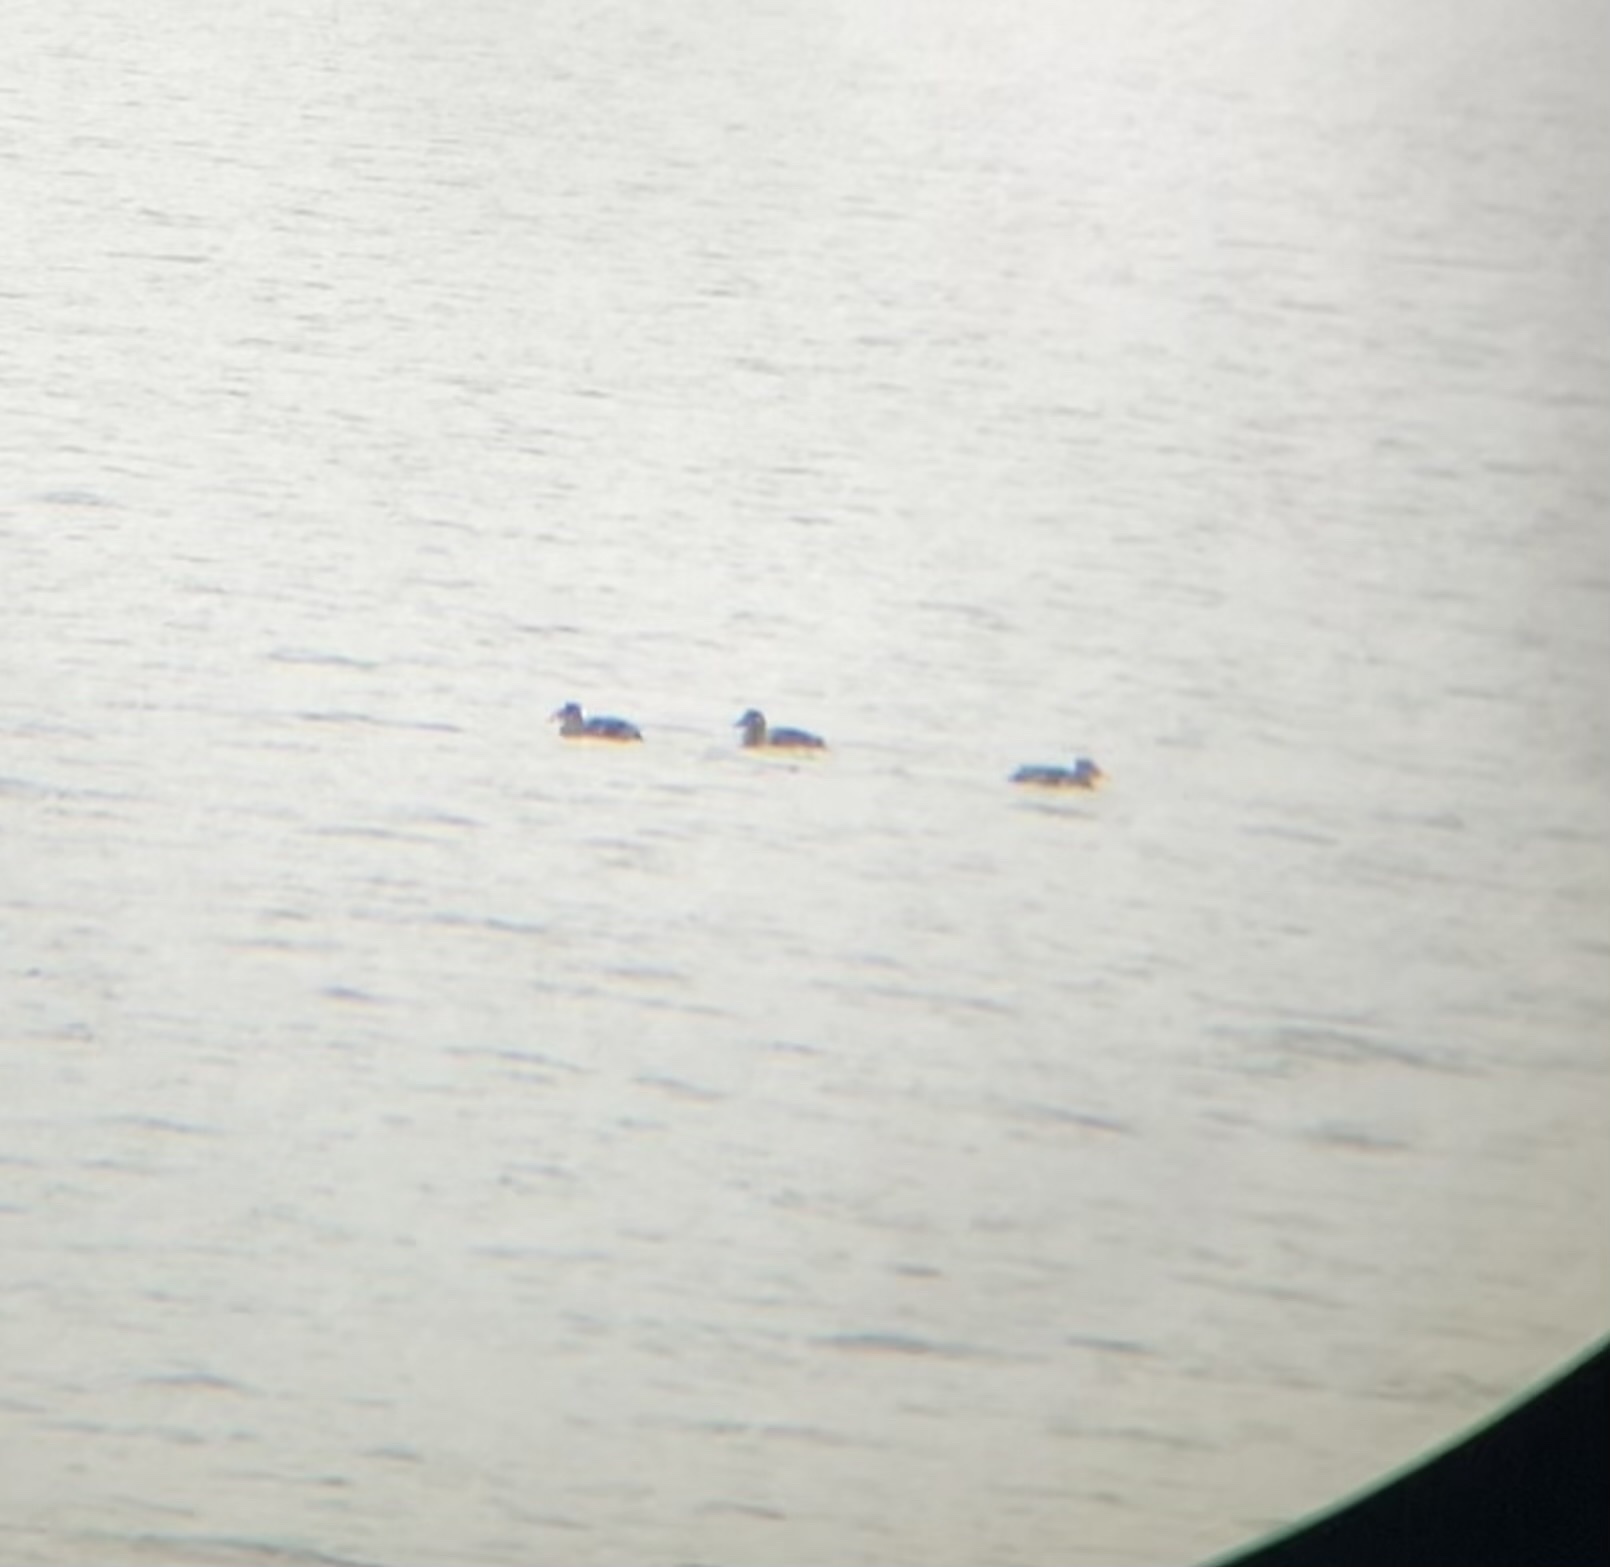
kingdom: Animalia
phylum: Chordata
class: Aves
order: Anseriformes
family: Anatidae
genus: Melanitta
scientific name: Melanitta perspicillata
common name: Surf scoter
